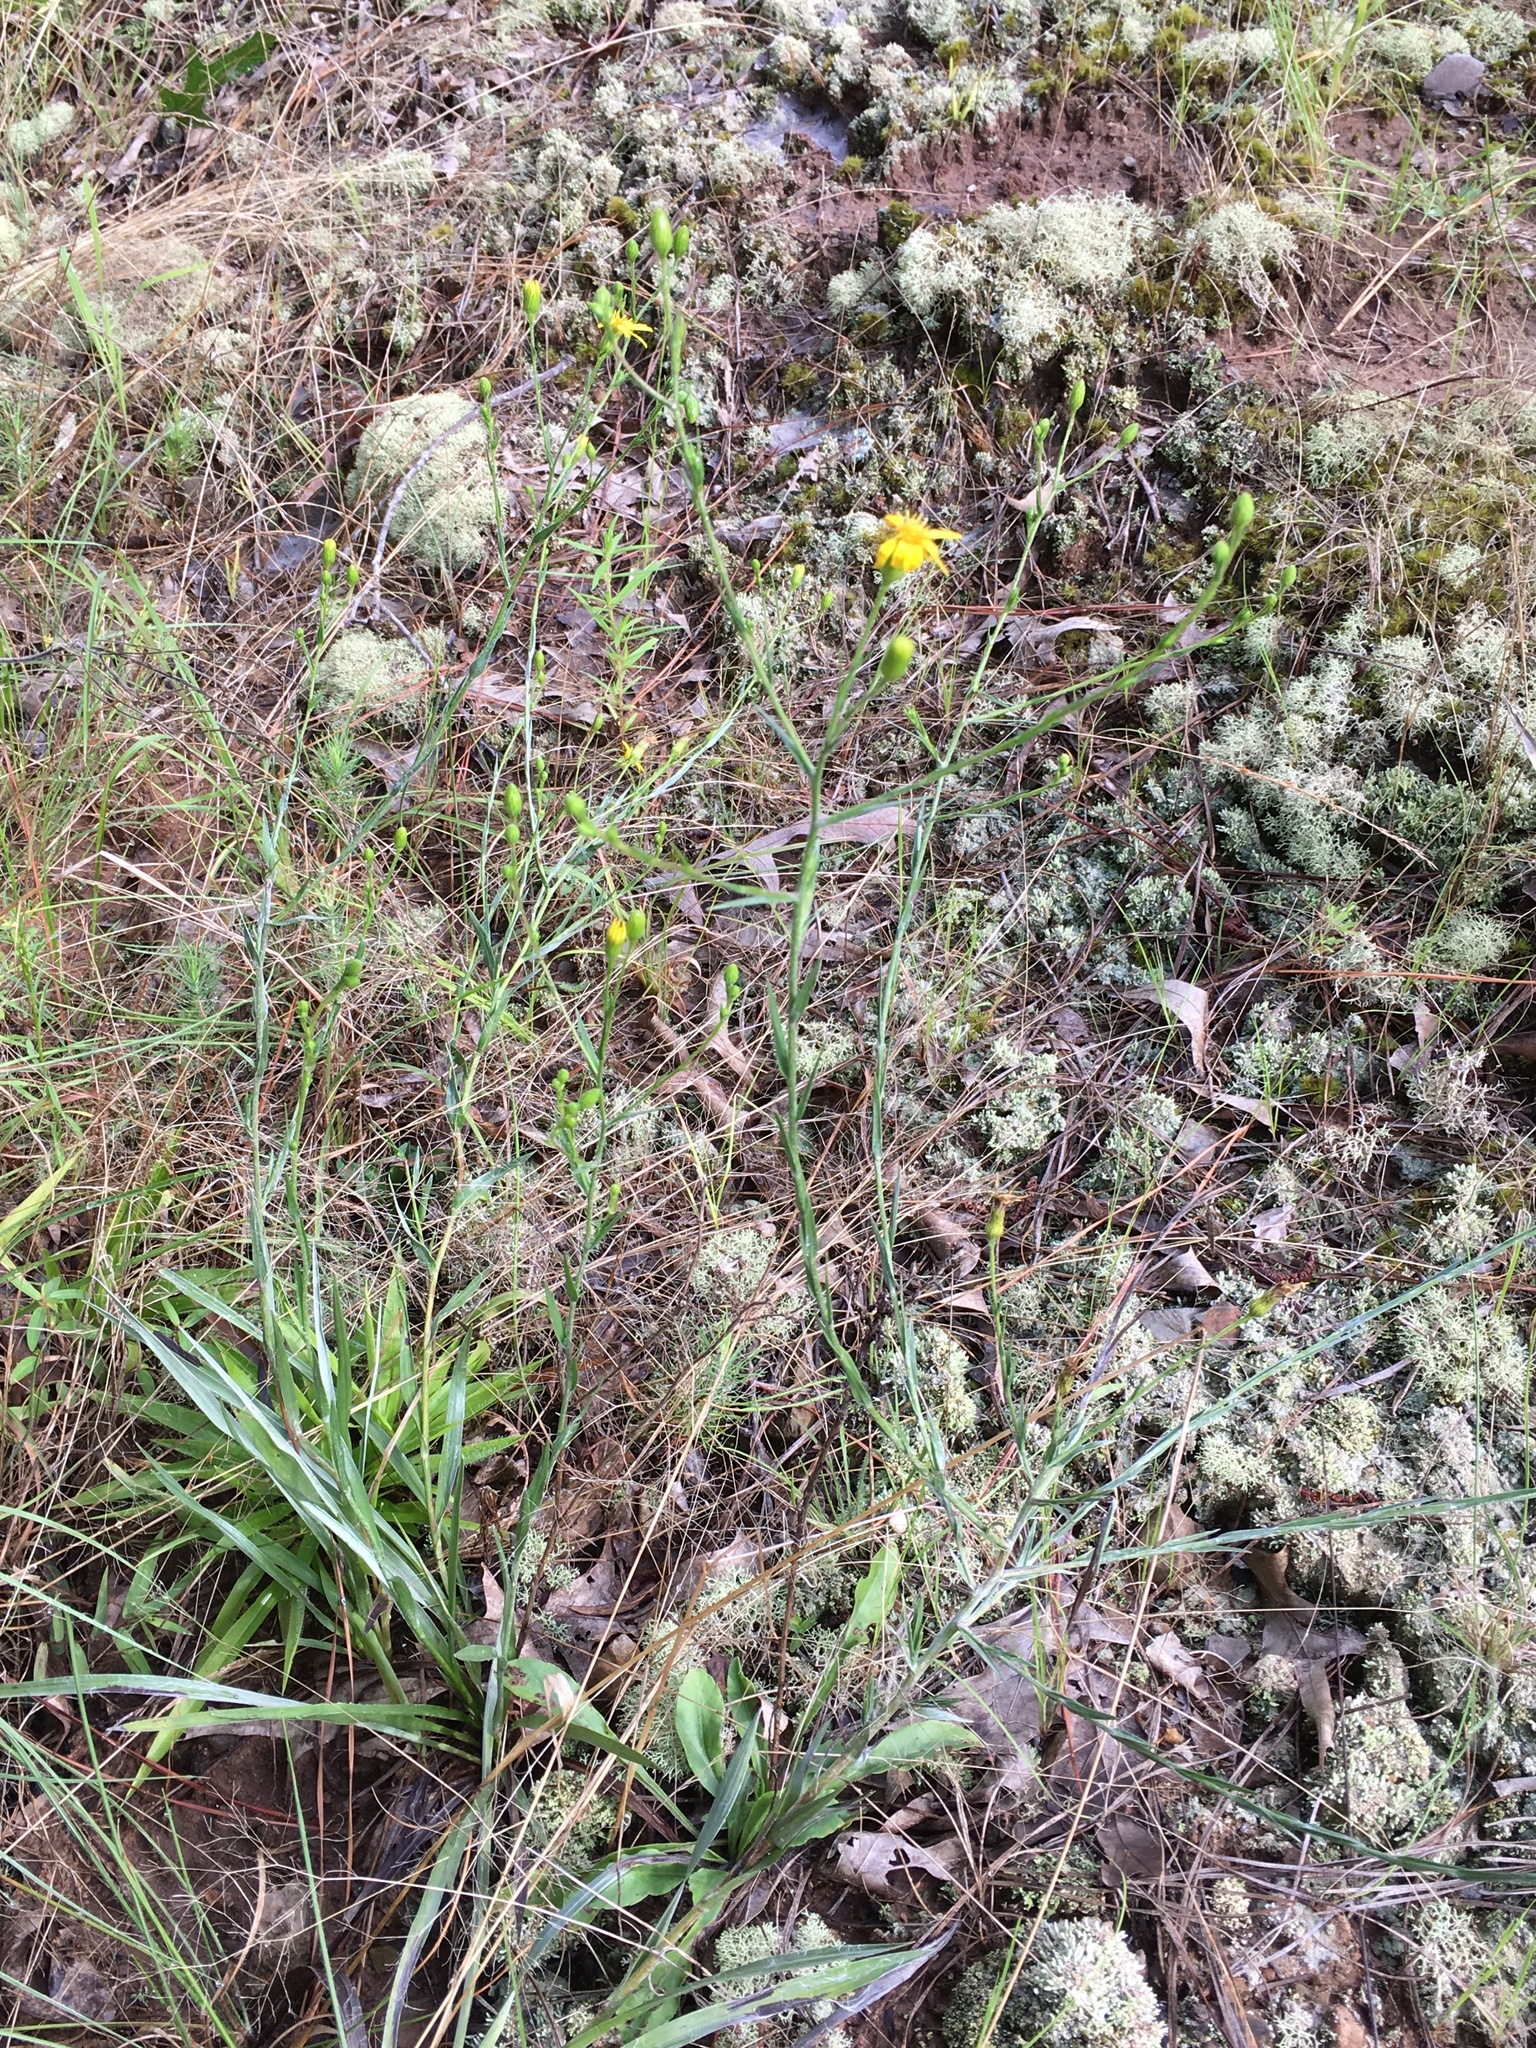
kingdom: Plantae
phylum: Tracheophyta
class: Magnoliopsida
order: Asterales
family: Asteraceae
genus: Pityopsis
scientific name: Pityopsis aspera
